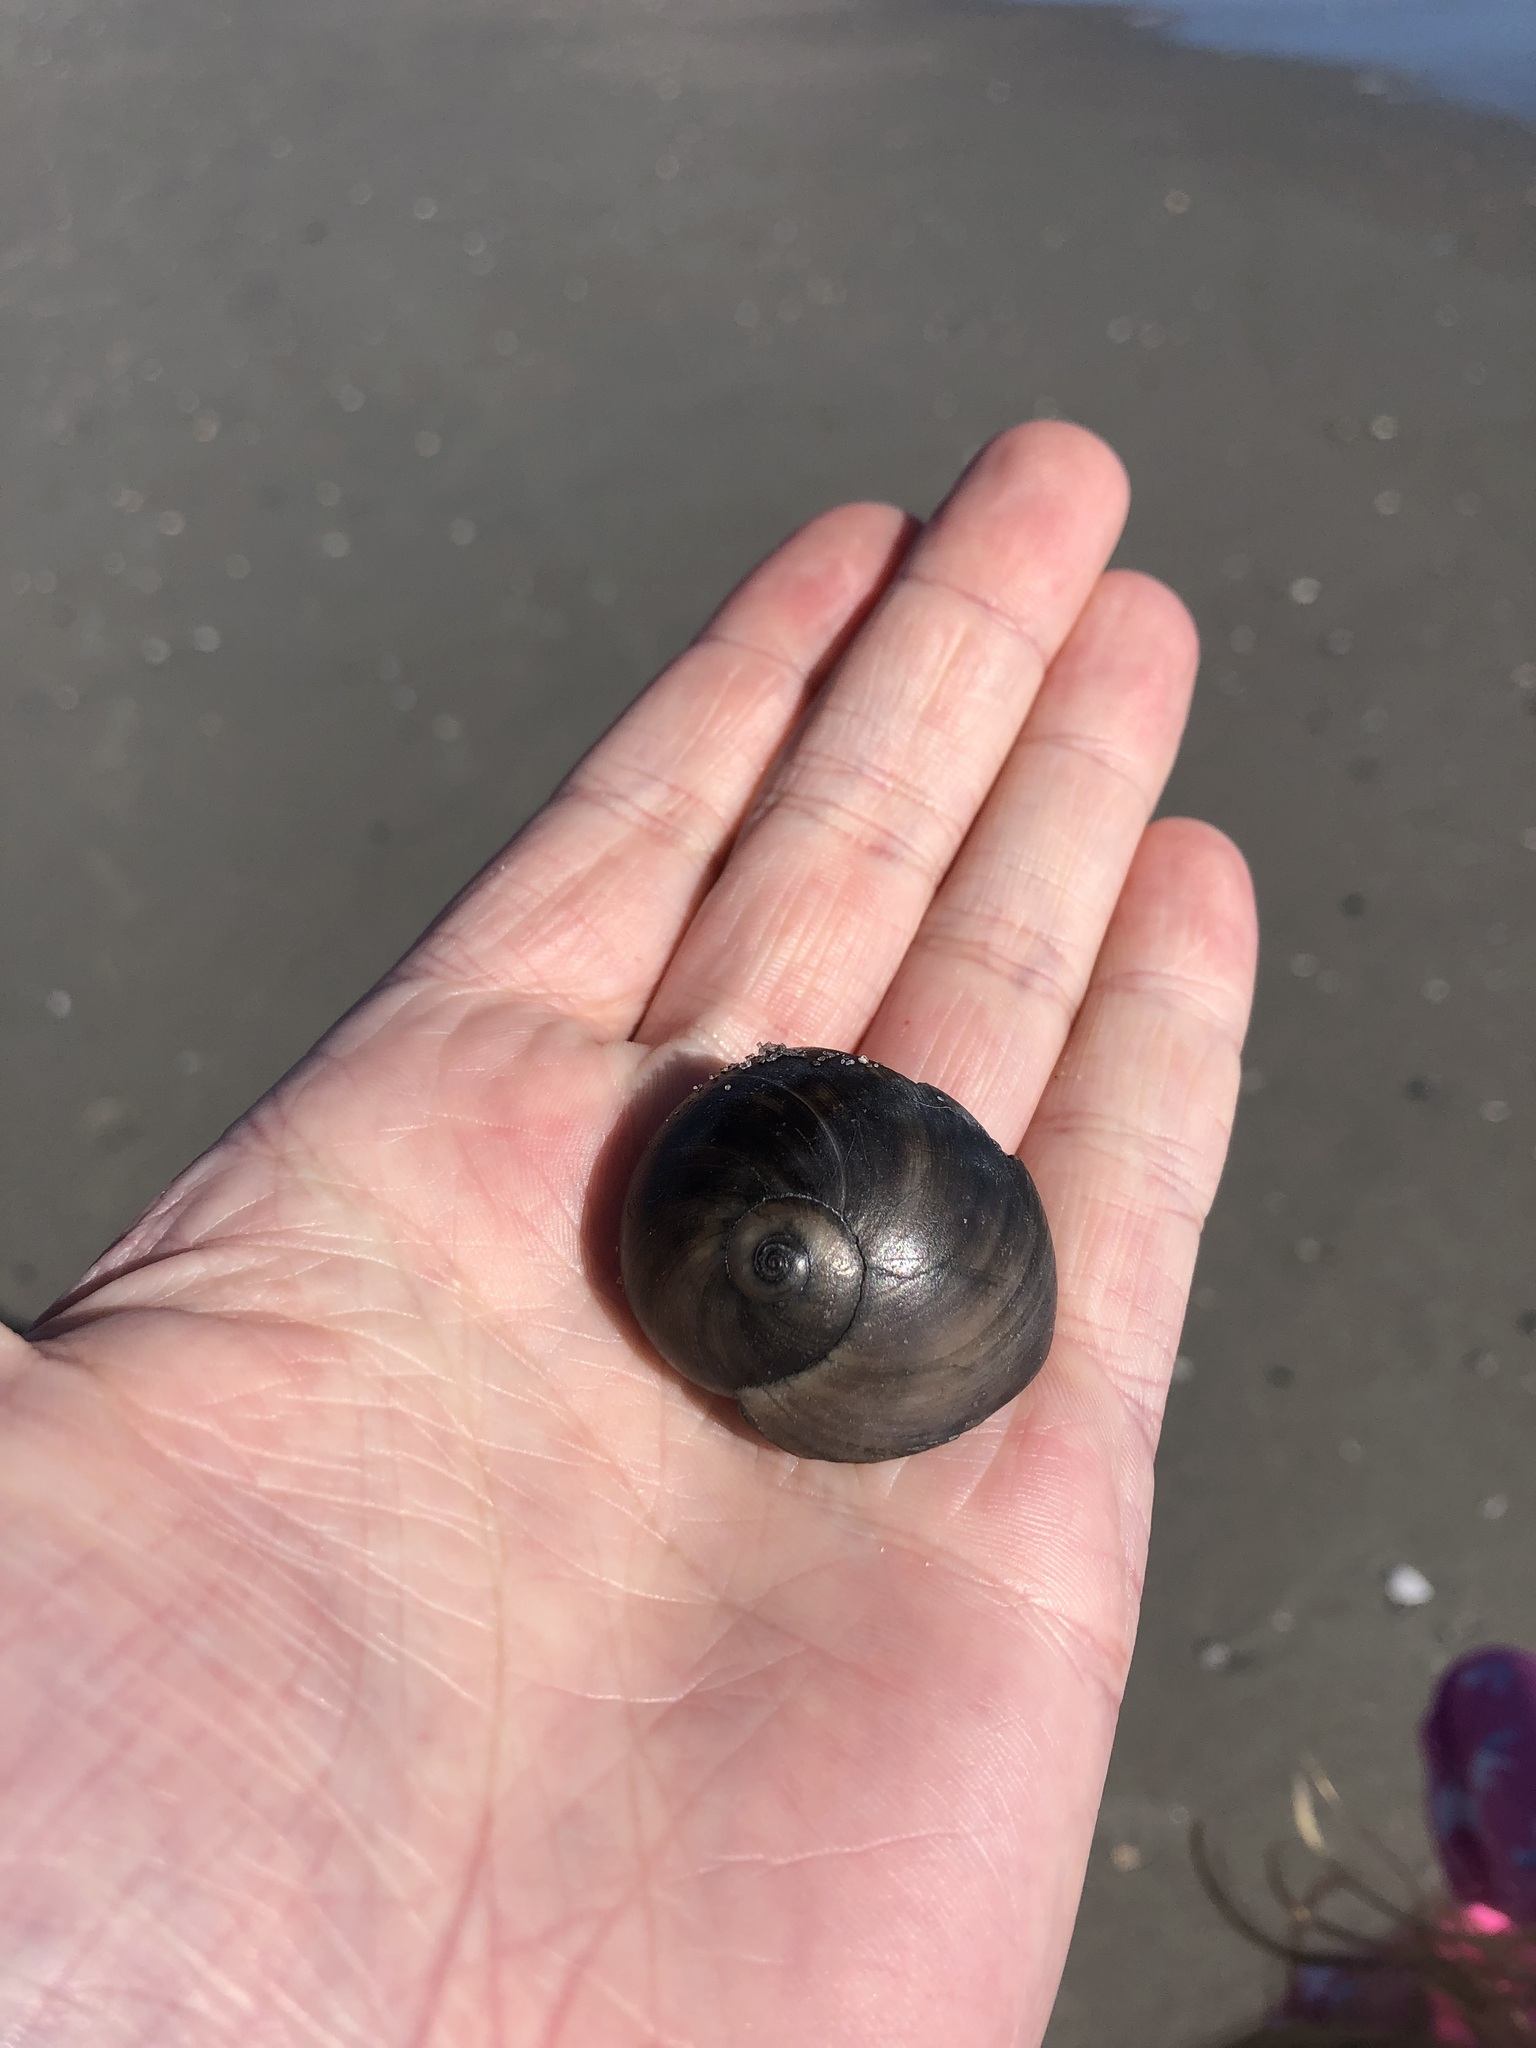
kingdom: Animalia
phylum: Mollusca
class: Gastropoda
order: Littorinimorpha
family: Naticidae
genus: Neverita
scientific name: Neverita duplicata
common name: Lobed moonsnail
